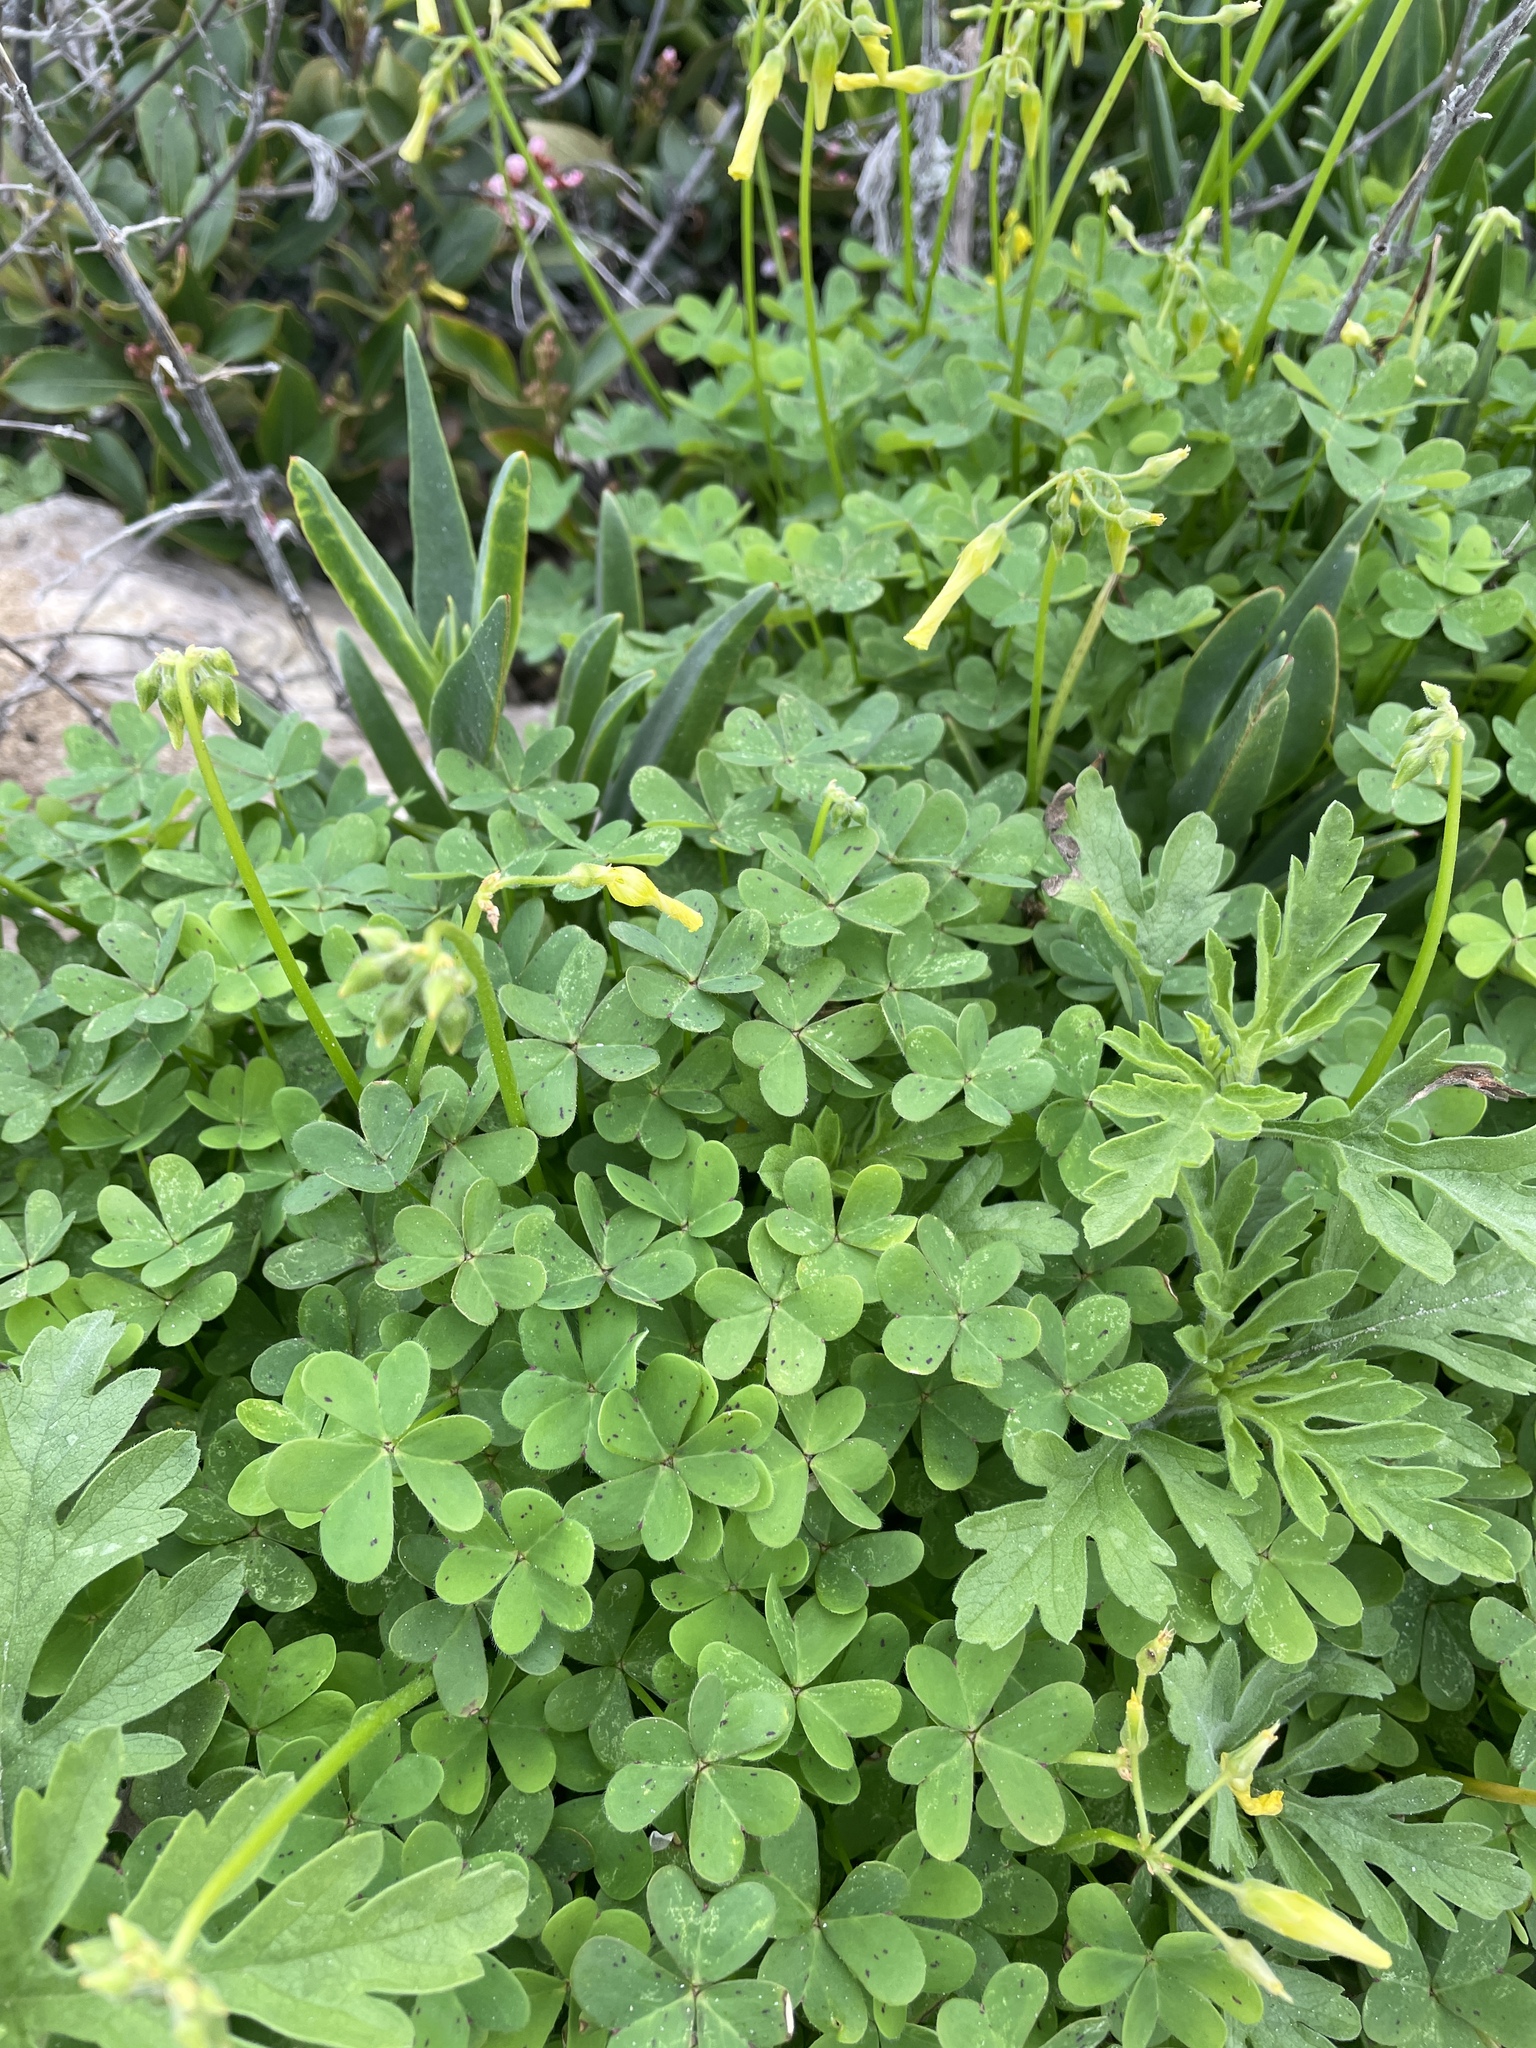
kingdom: Plantae
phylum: Tracheophyta
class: Magnoliopsida
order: Oxalidales
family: Oxalidaceae
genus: Oxalis
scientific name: Oxalis pes-caprae
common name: Bermuda-buttercup
